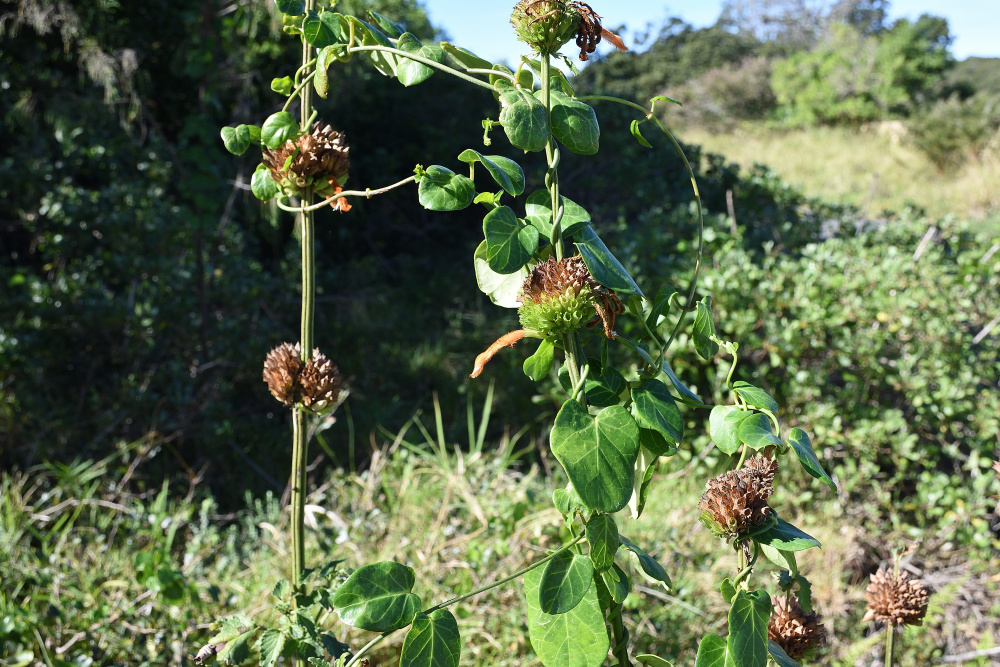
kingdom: Plantae
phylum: Tracheophyta
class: Magnoliopsida
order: Lamiales
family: Lamiaceae
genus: Leonotis
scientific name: Leonotis ocymifolia
